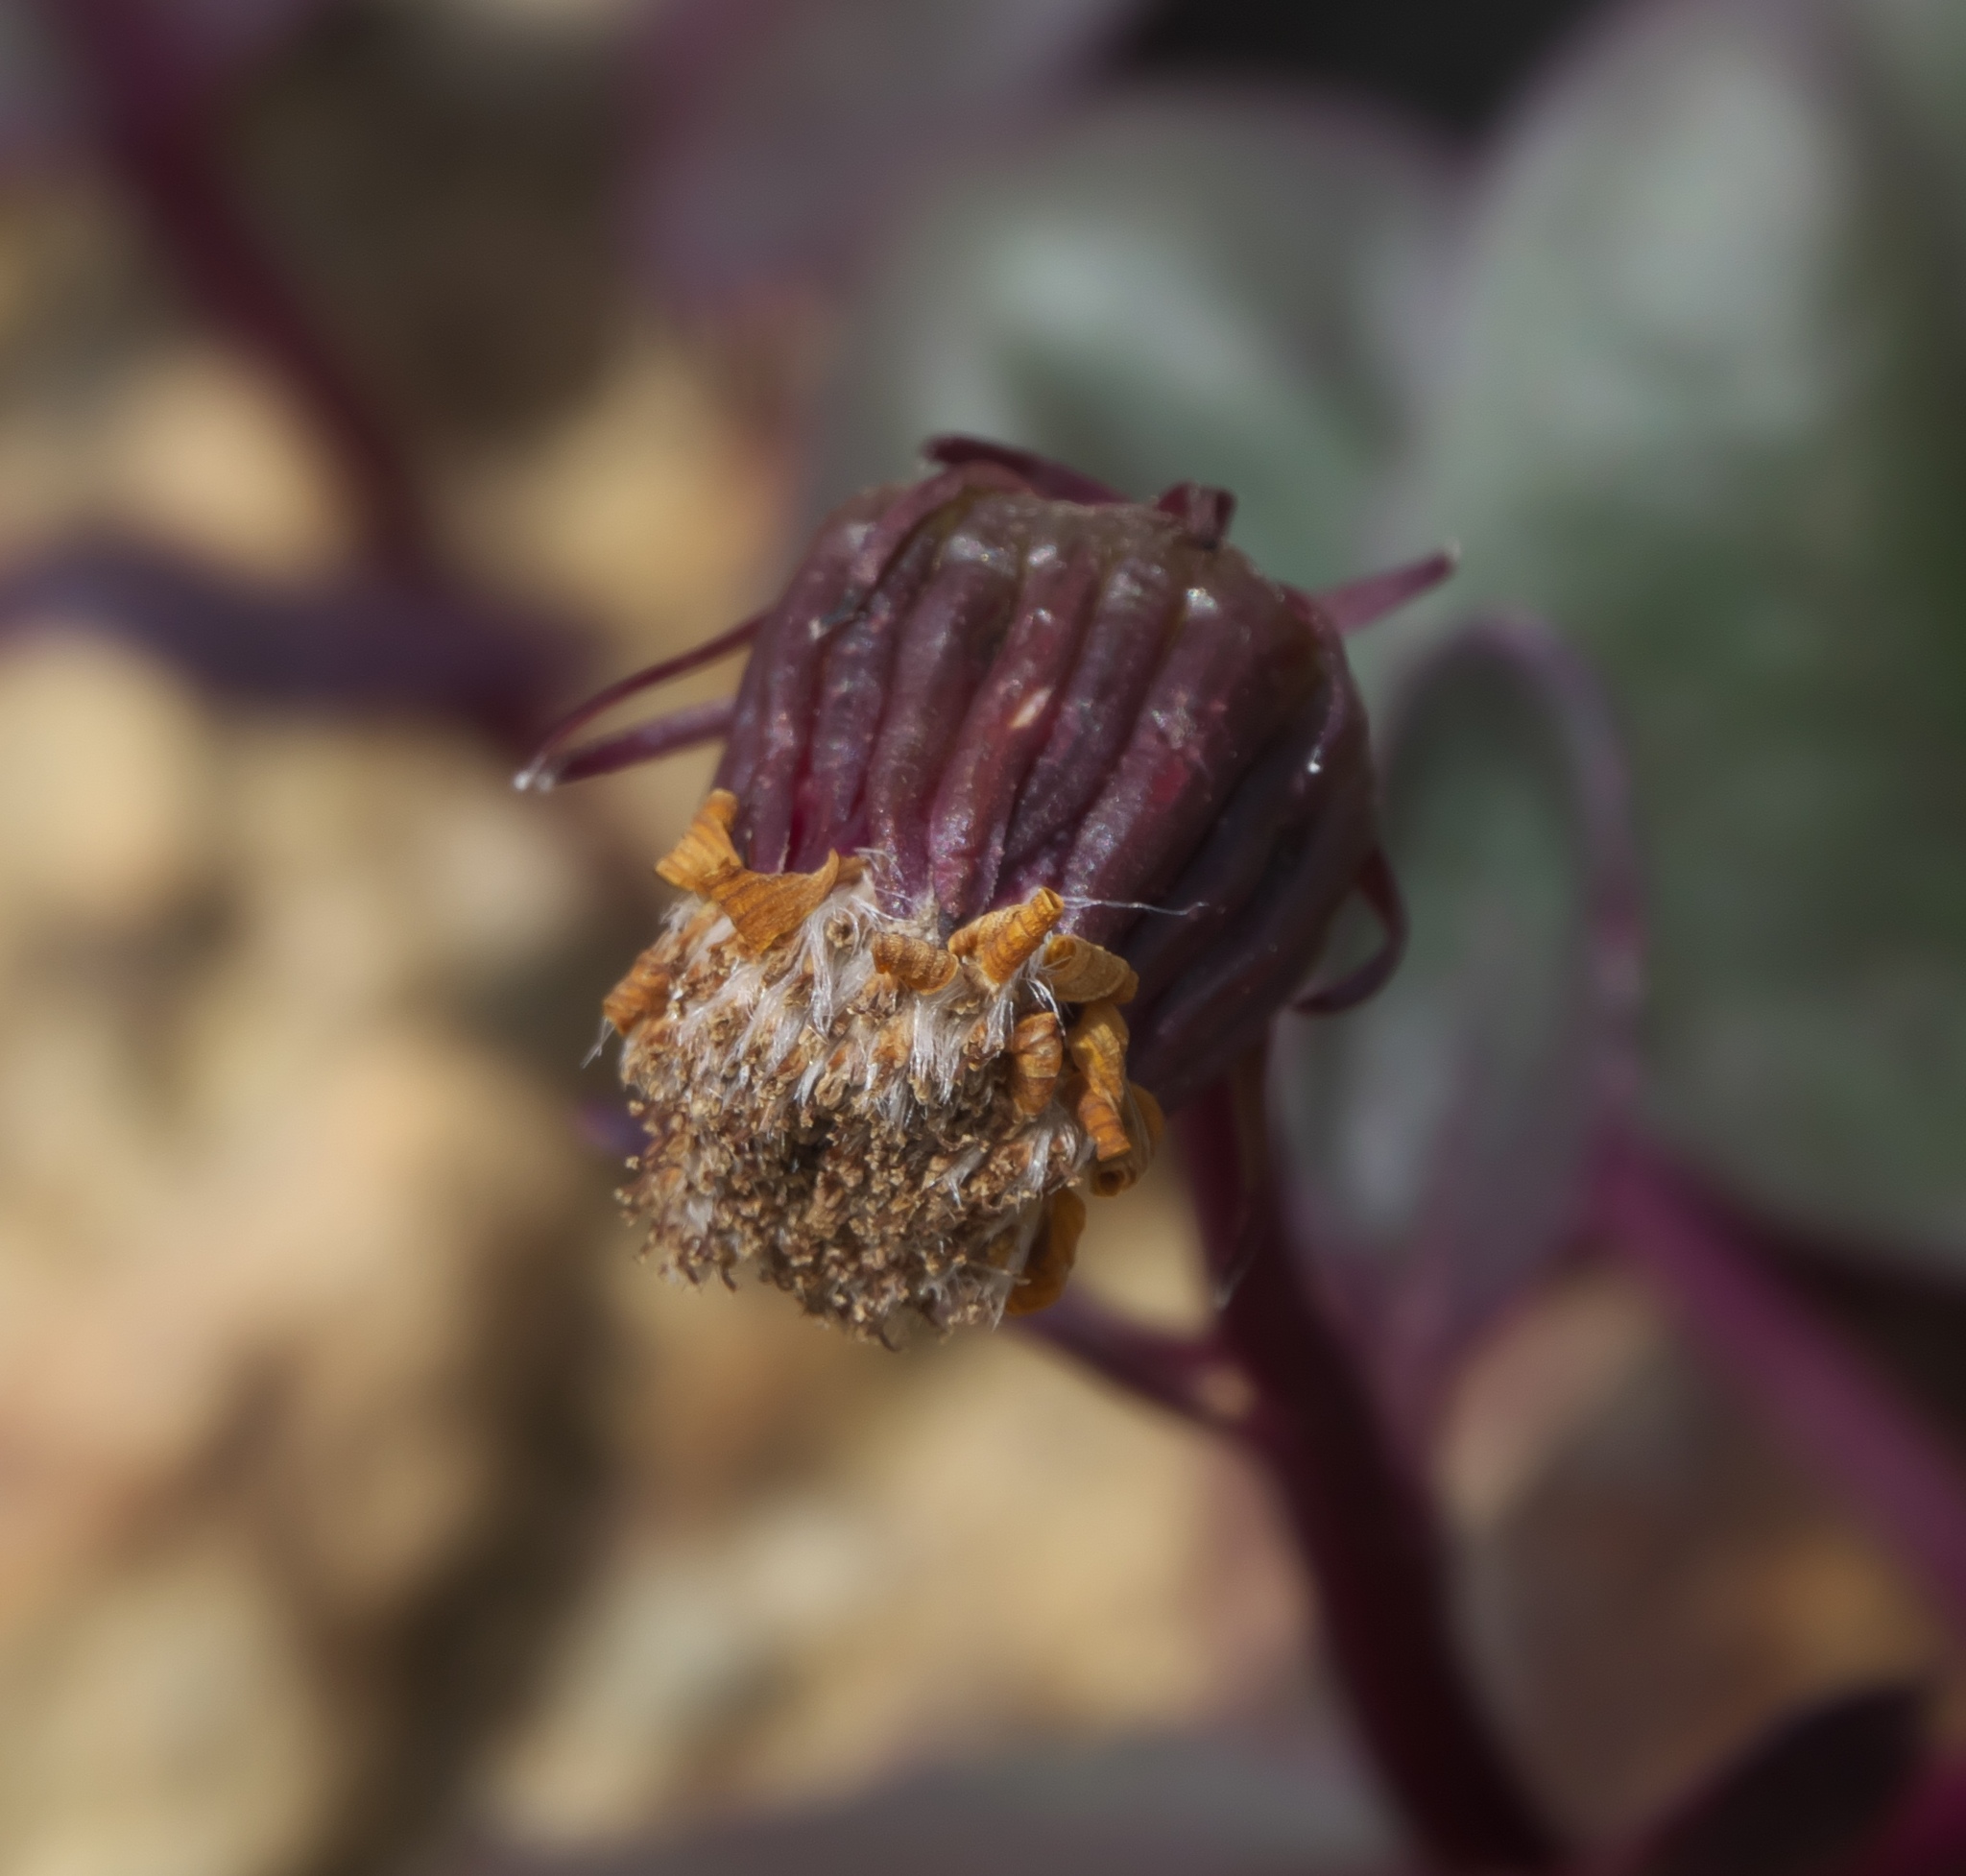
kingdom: Plantae
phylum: Tracheophyta
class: Magnoliopsida
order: Asterales
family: Asteraceae
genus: Senecio
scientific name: Senecio soldanella
